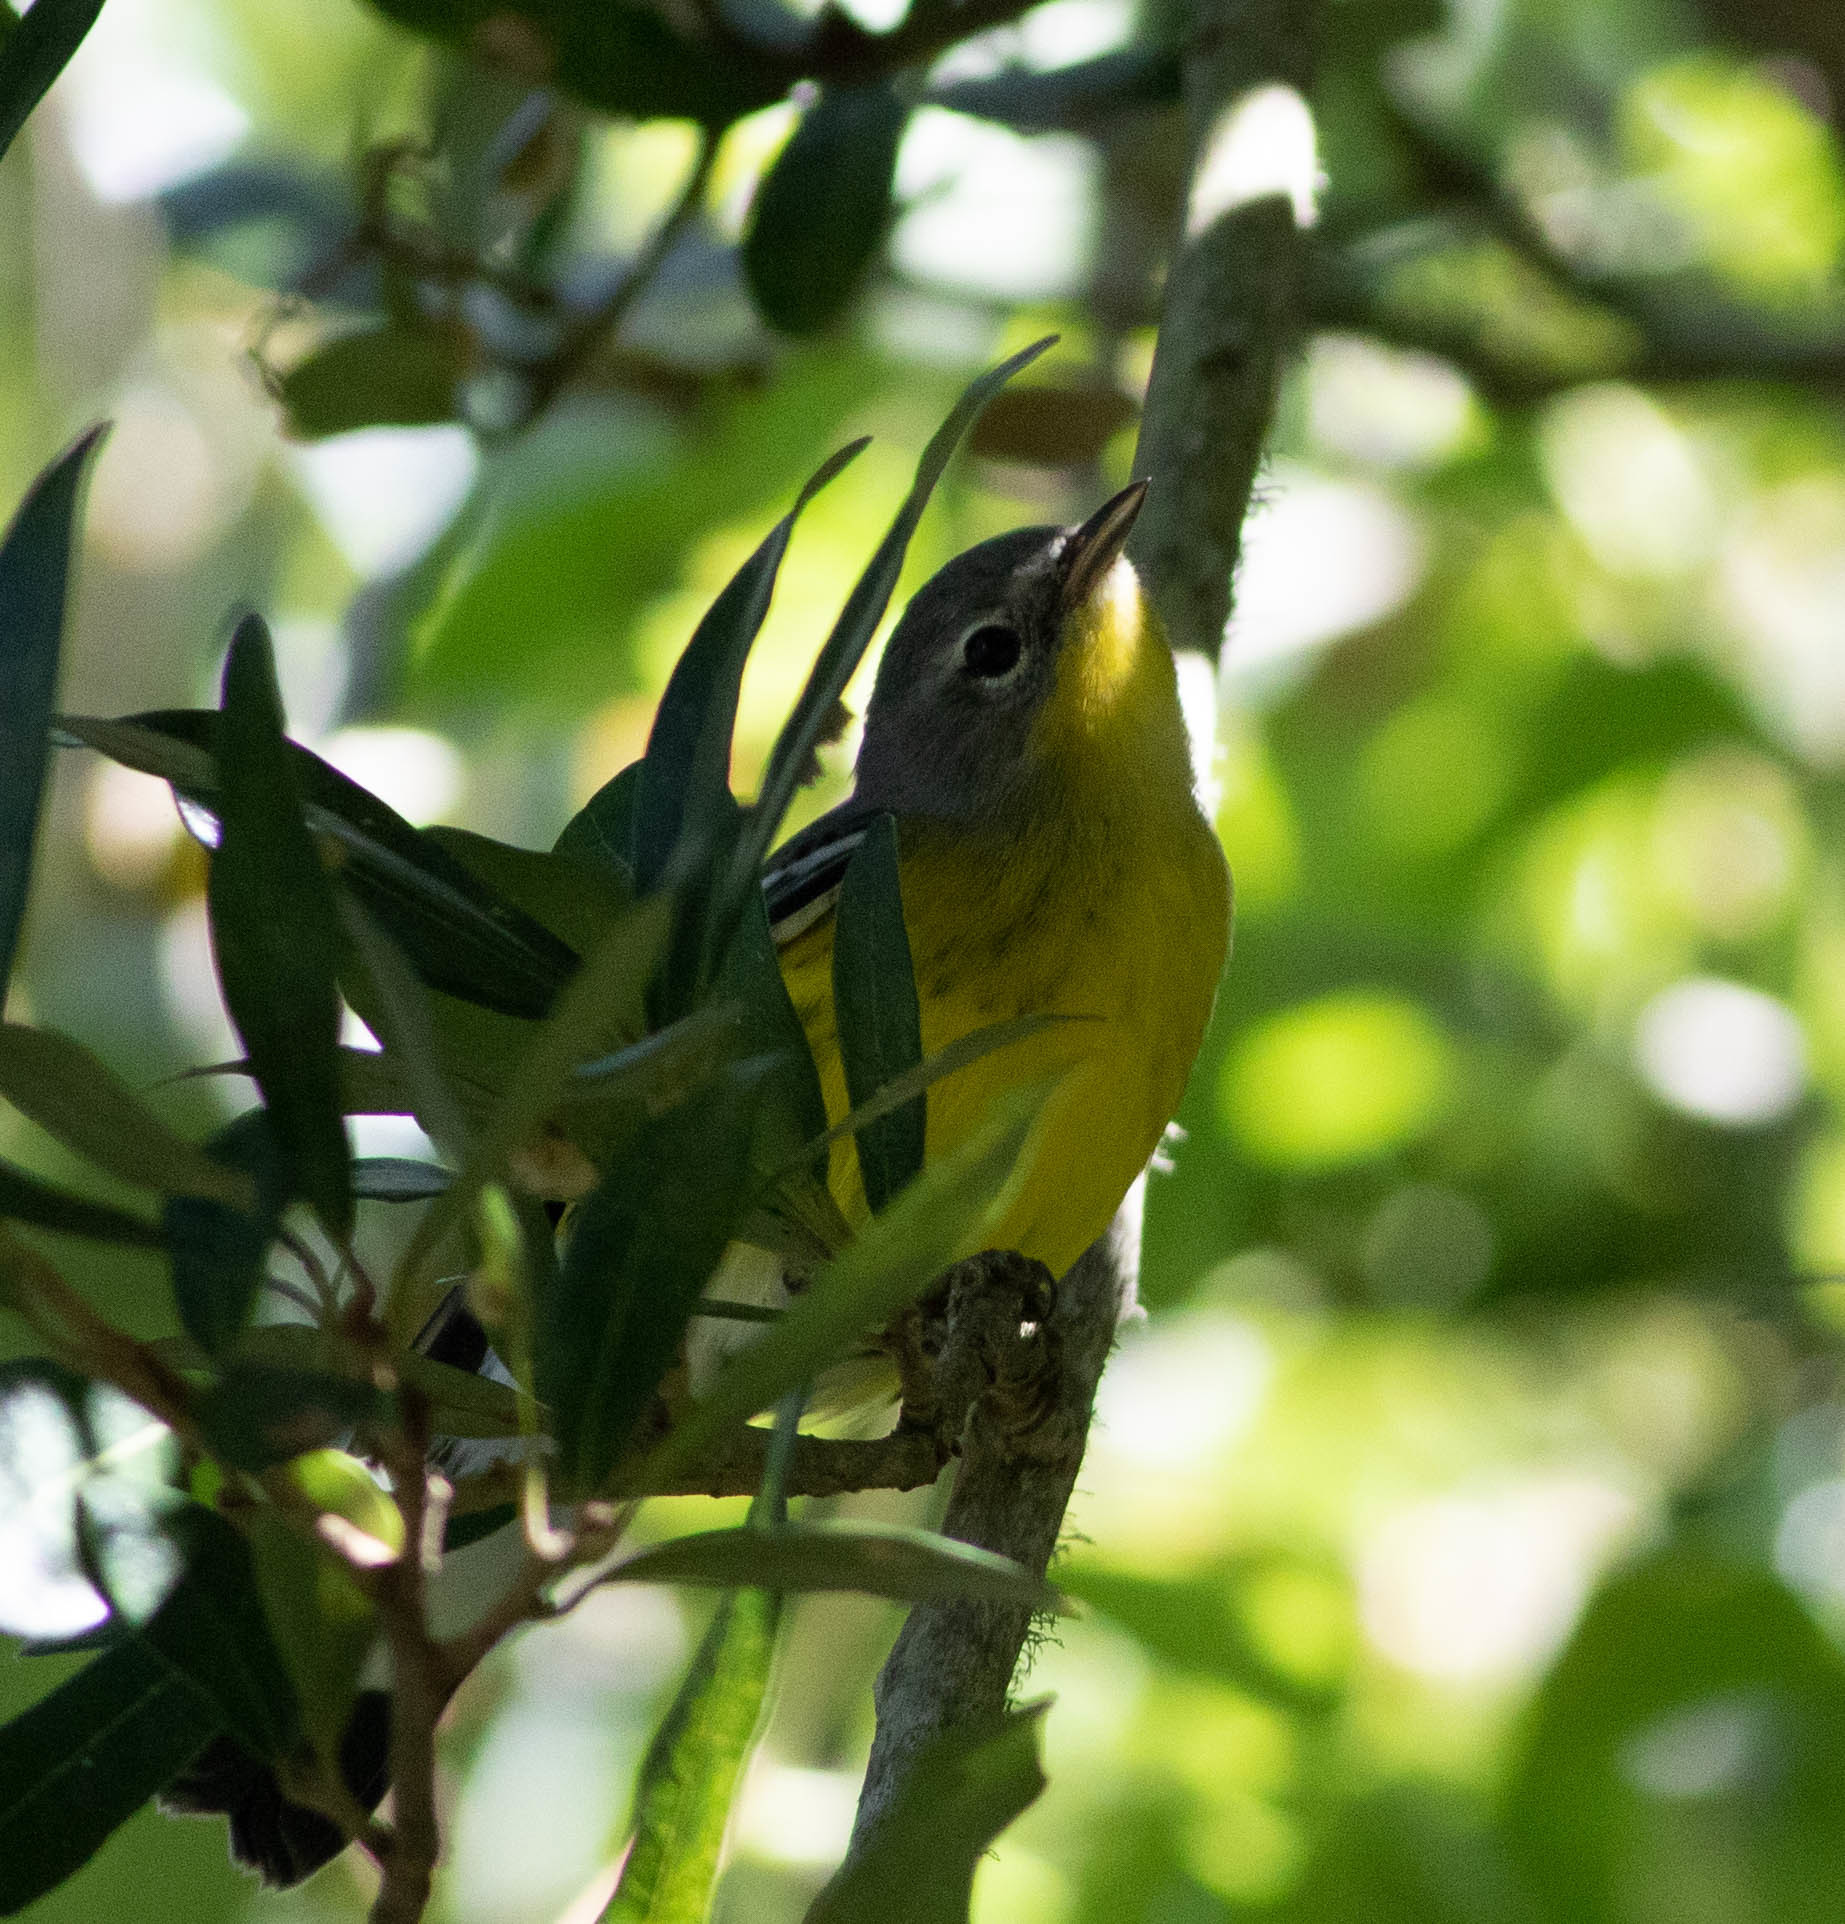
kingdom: Animalia
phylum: Chordata
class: Aves
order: Passeriformes
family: Parulidae
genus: Setophaga
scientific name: Setophaga magnolia
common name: Magnolia warbler
